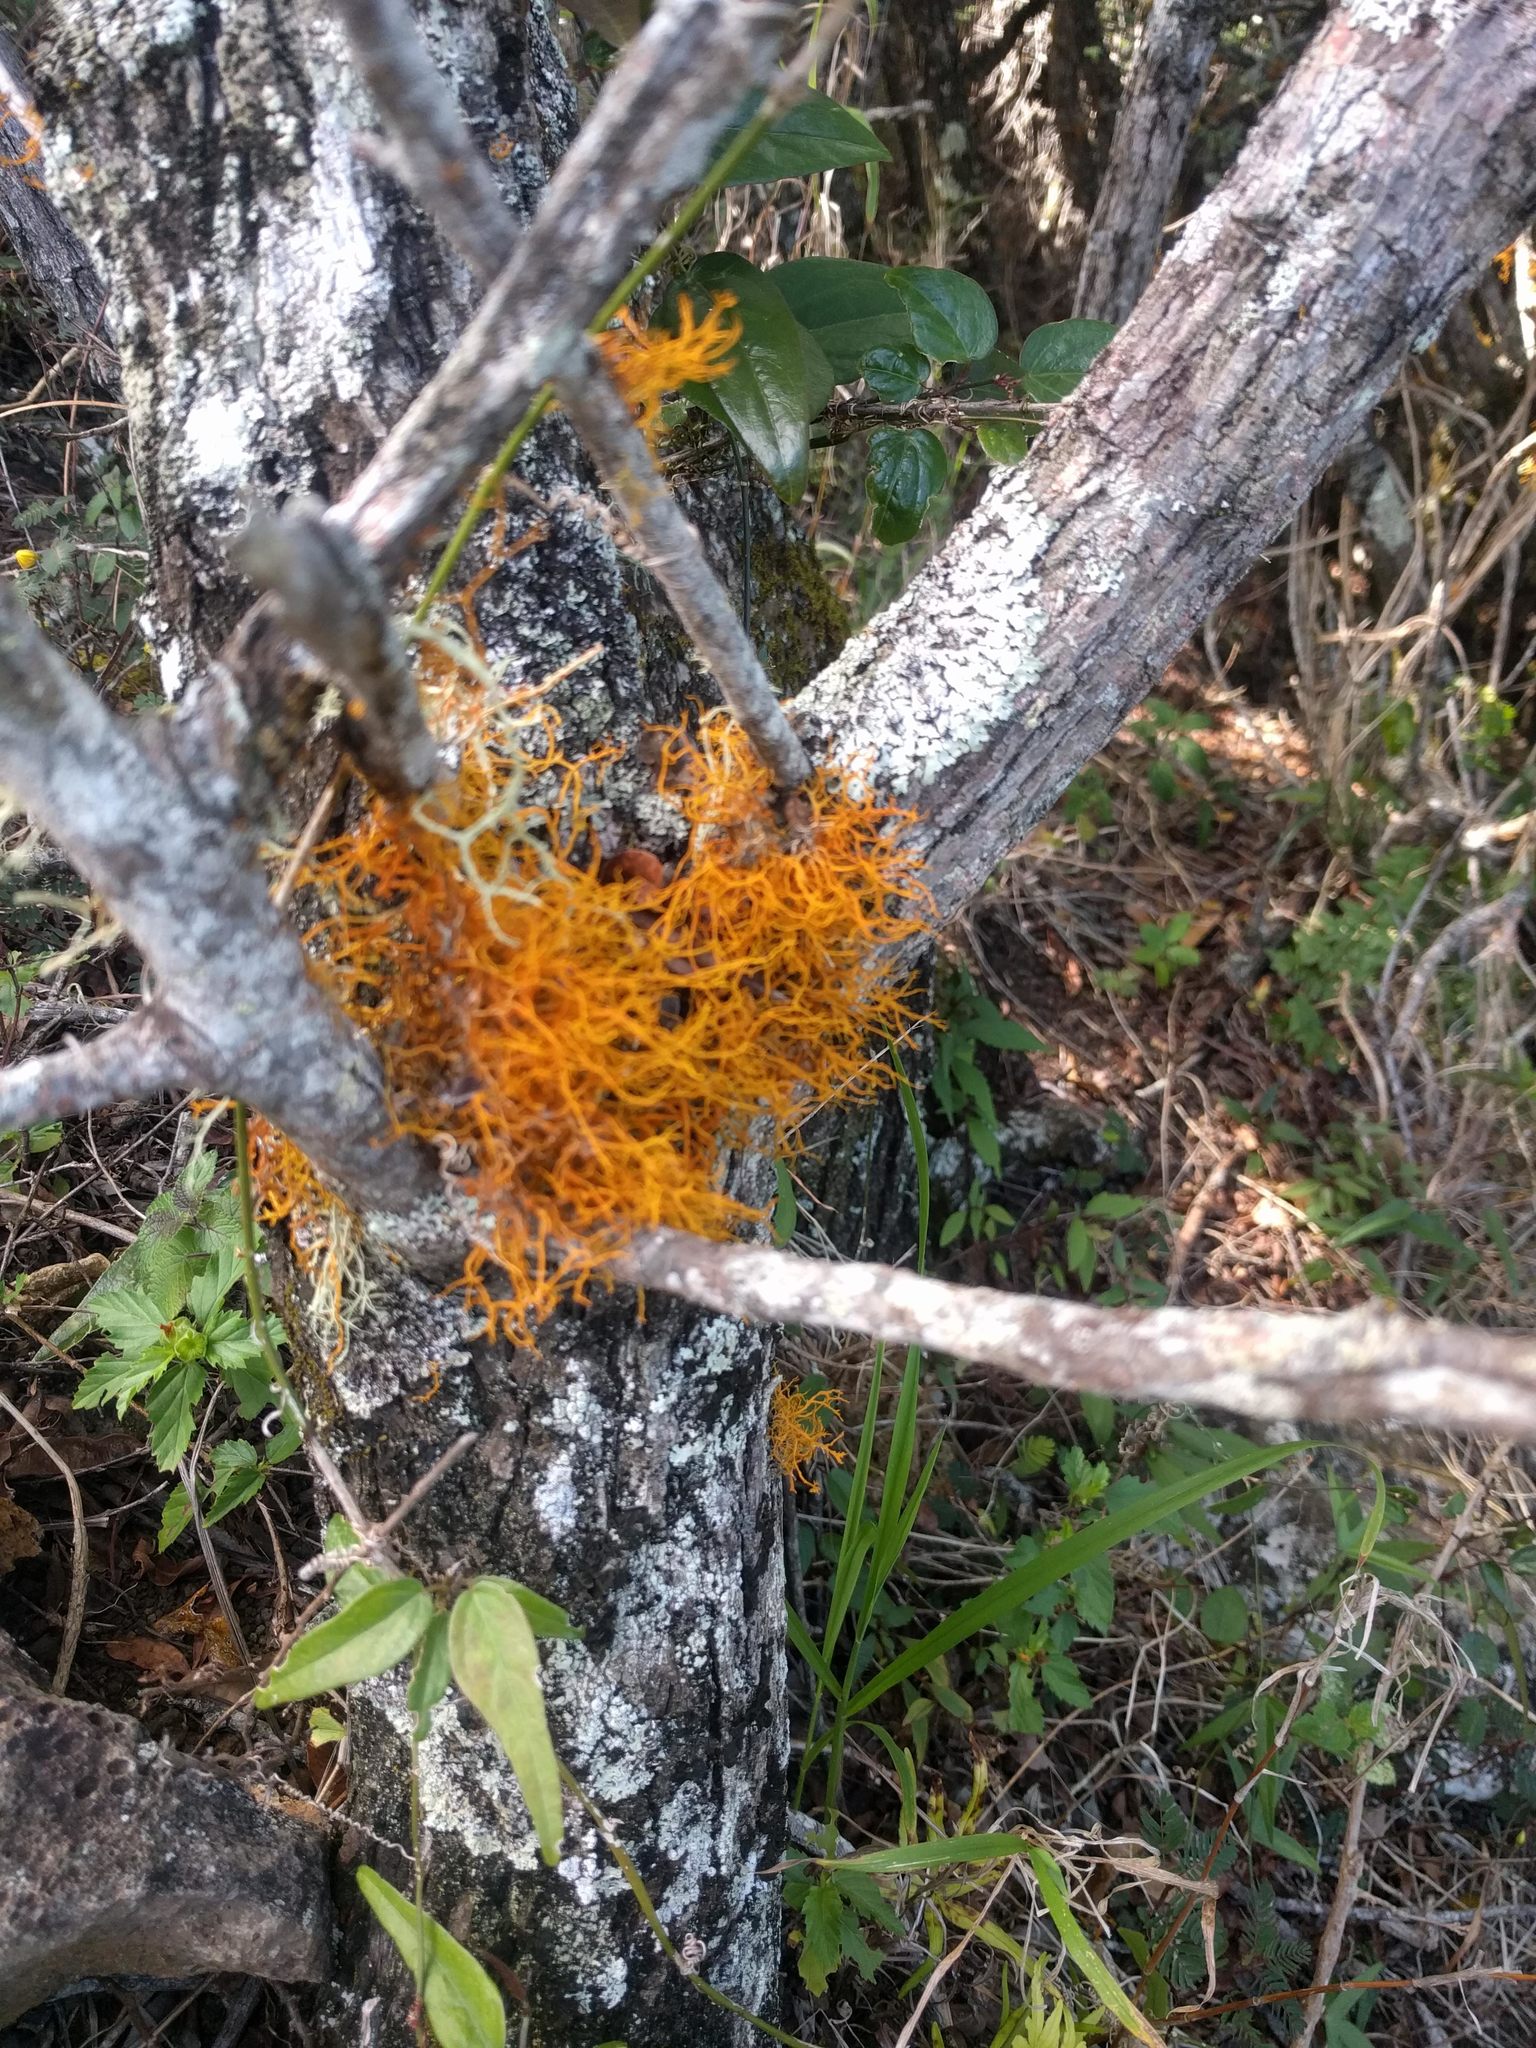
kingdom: Fungi
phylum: Ascomycota
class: Lecanoromycetes
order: Teloschistales
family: Teloschistaceae
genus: Teloschistes
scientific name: Teloschistes flavicans
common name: Golden hair-lichen
